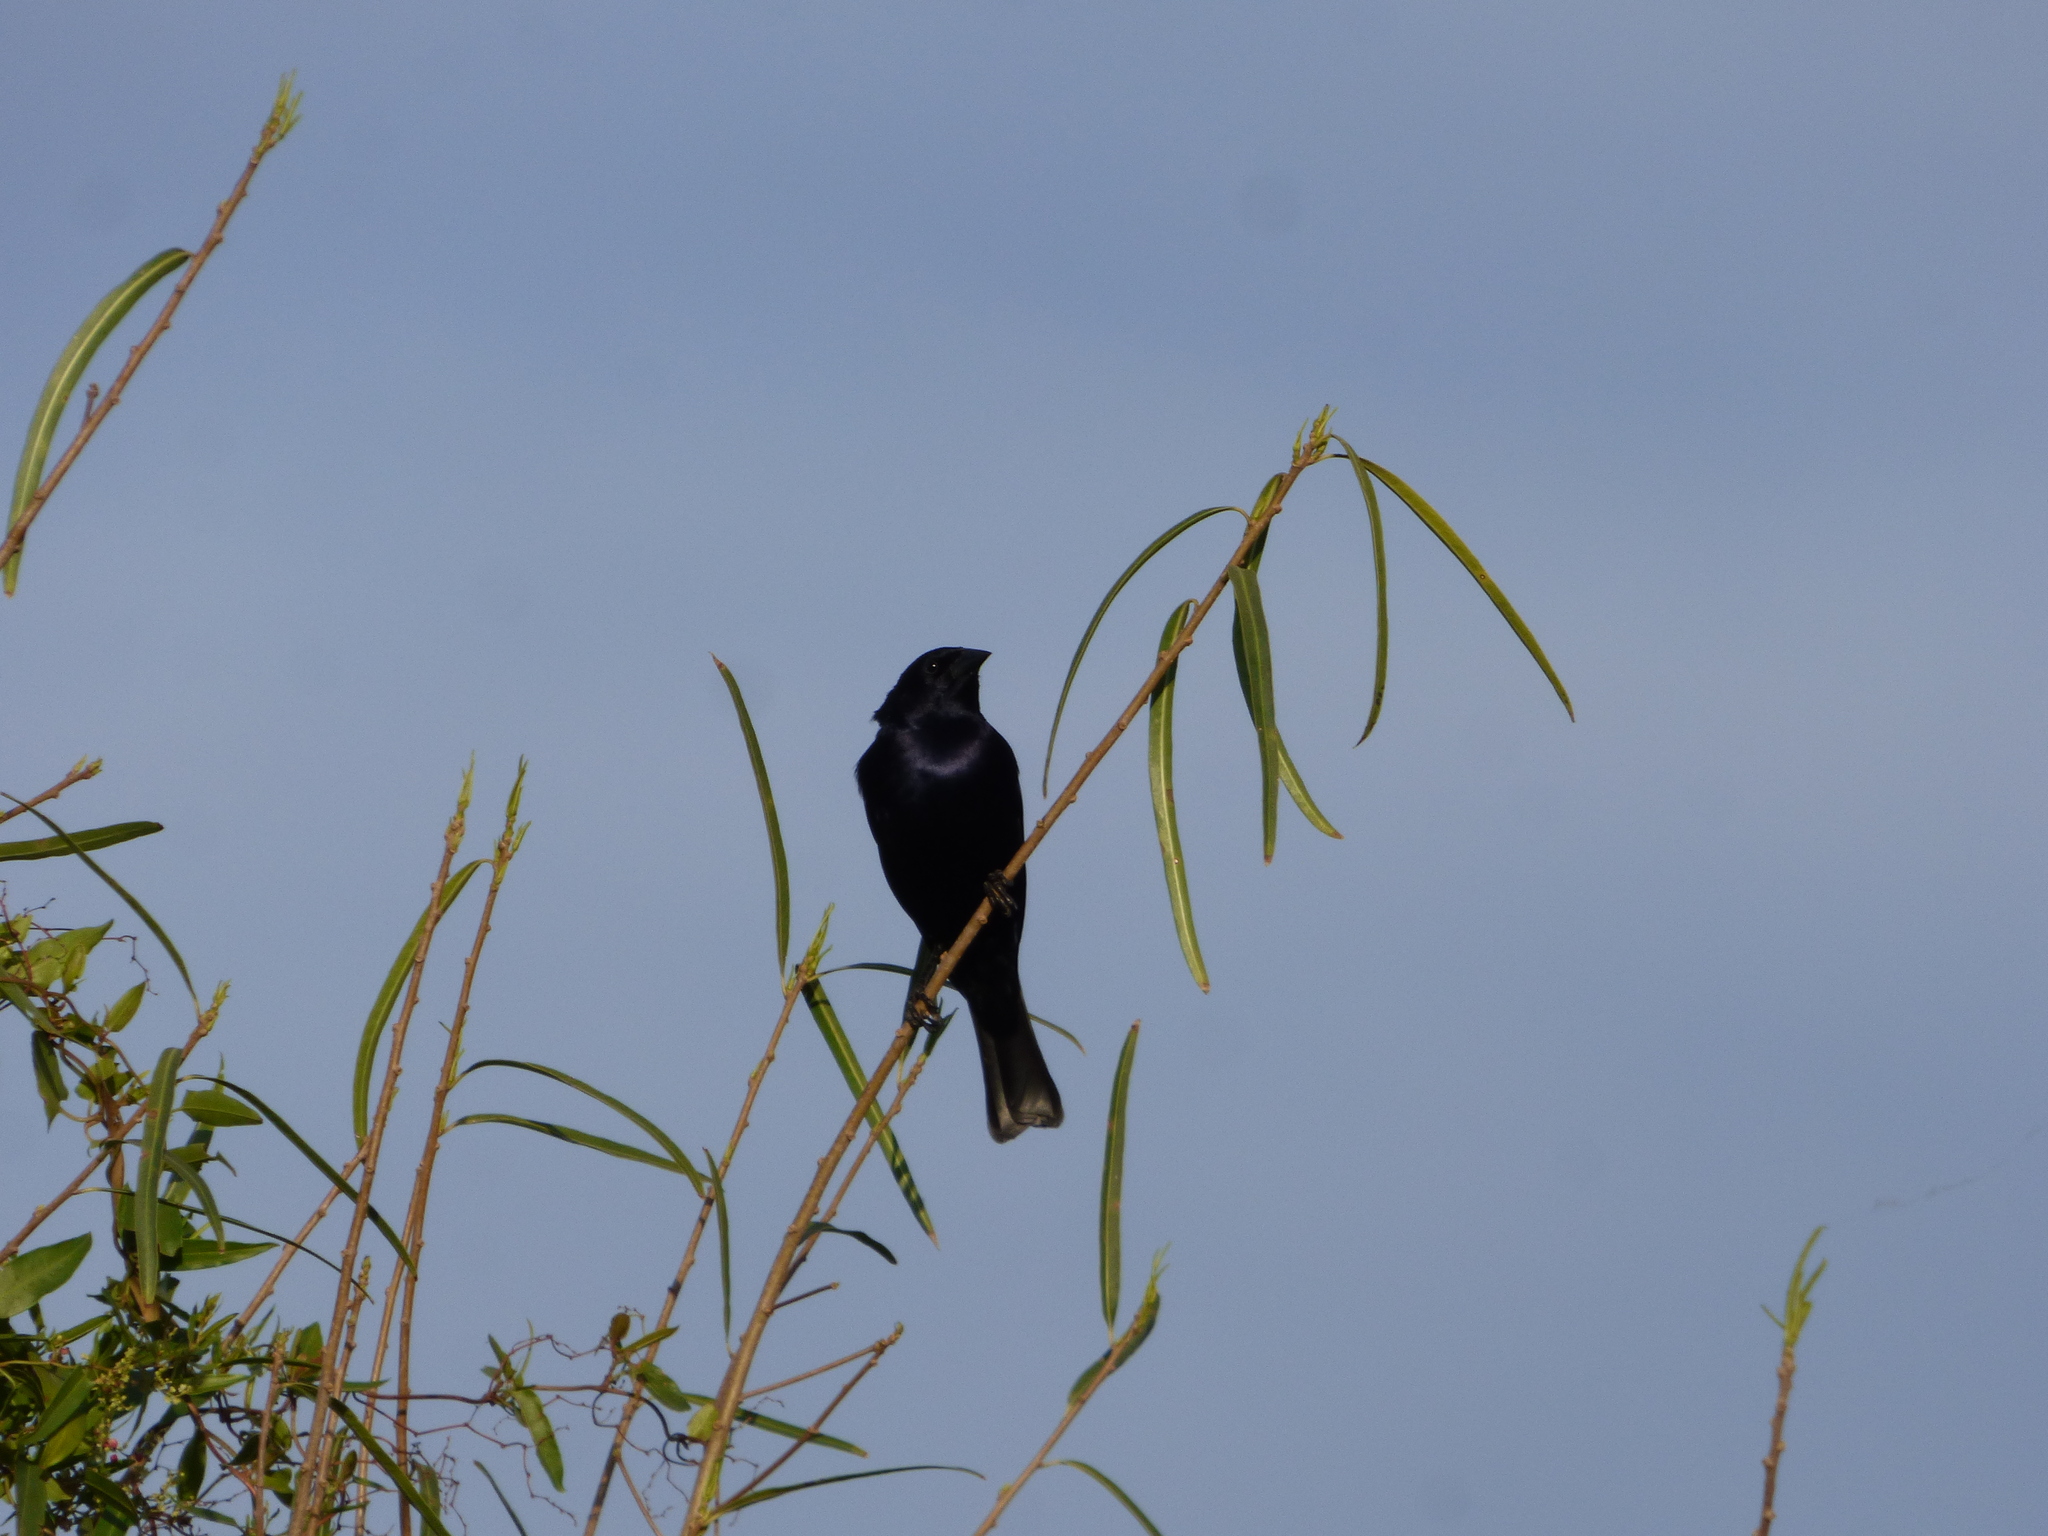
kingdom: Animalia
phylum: Chordata
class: Aves
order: Passeriformes
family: Icteridae
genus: Molothrus
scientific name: Molothrus bonariensis
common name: Shiny cowbird
